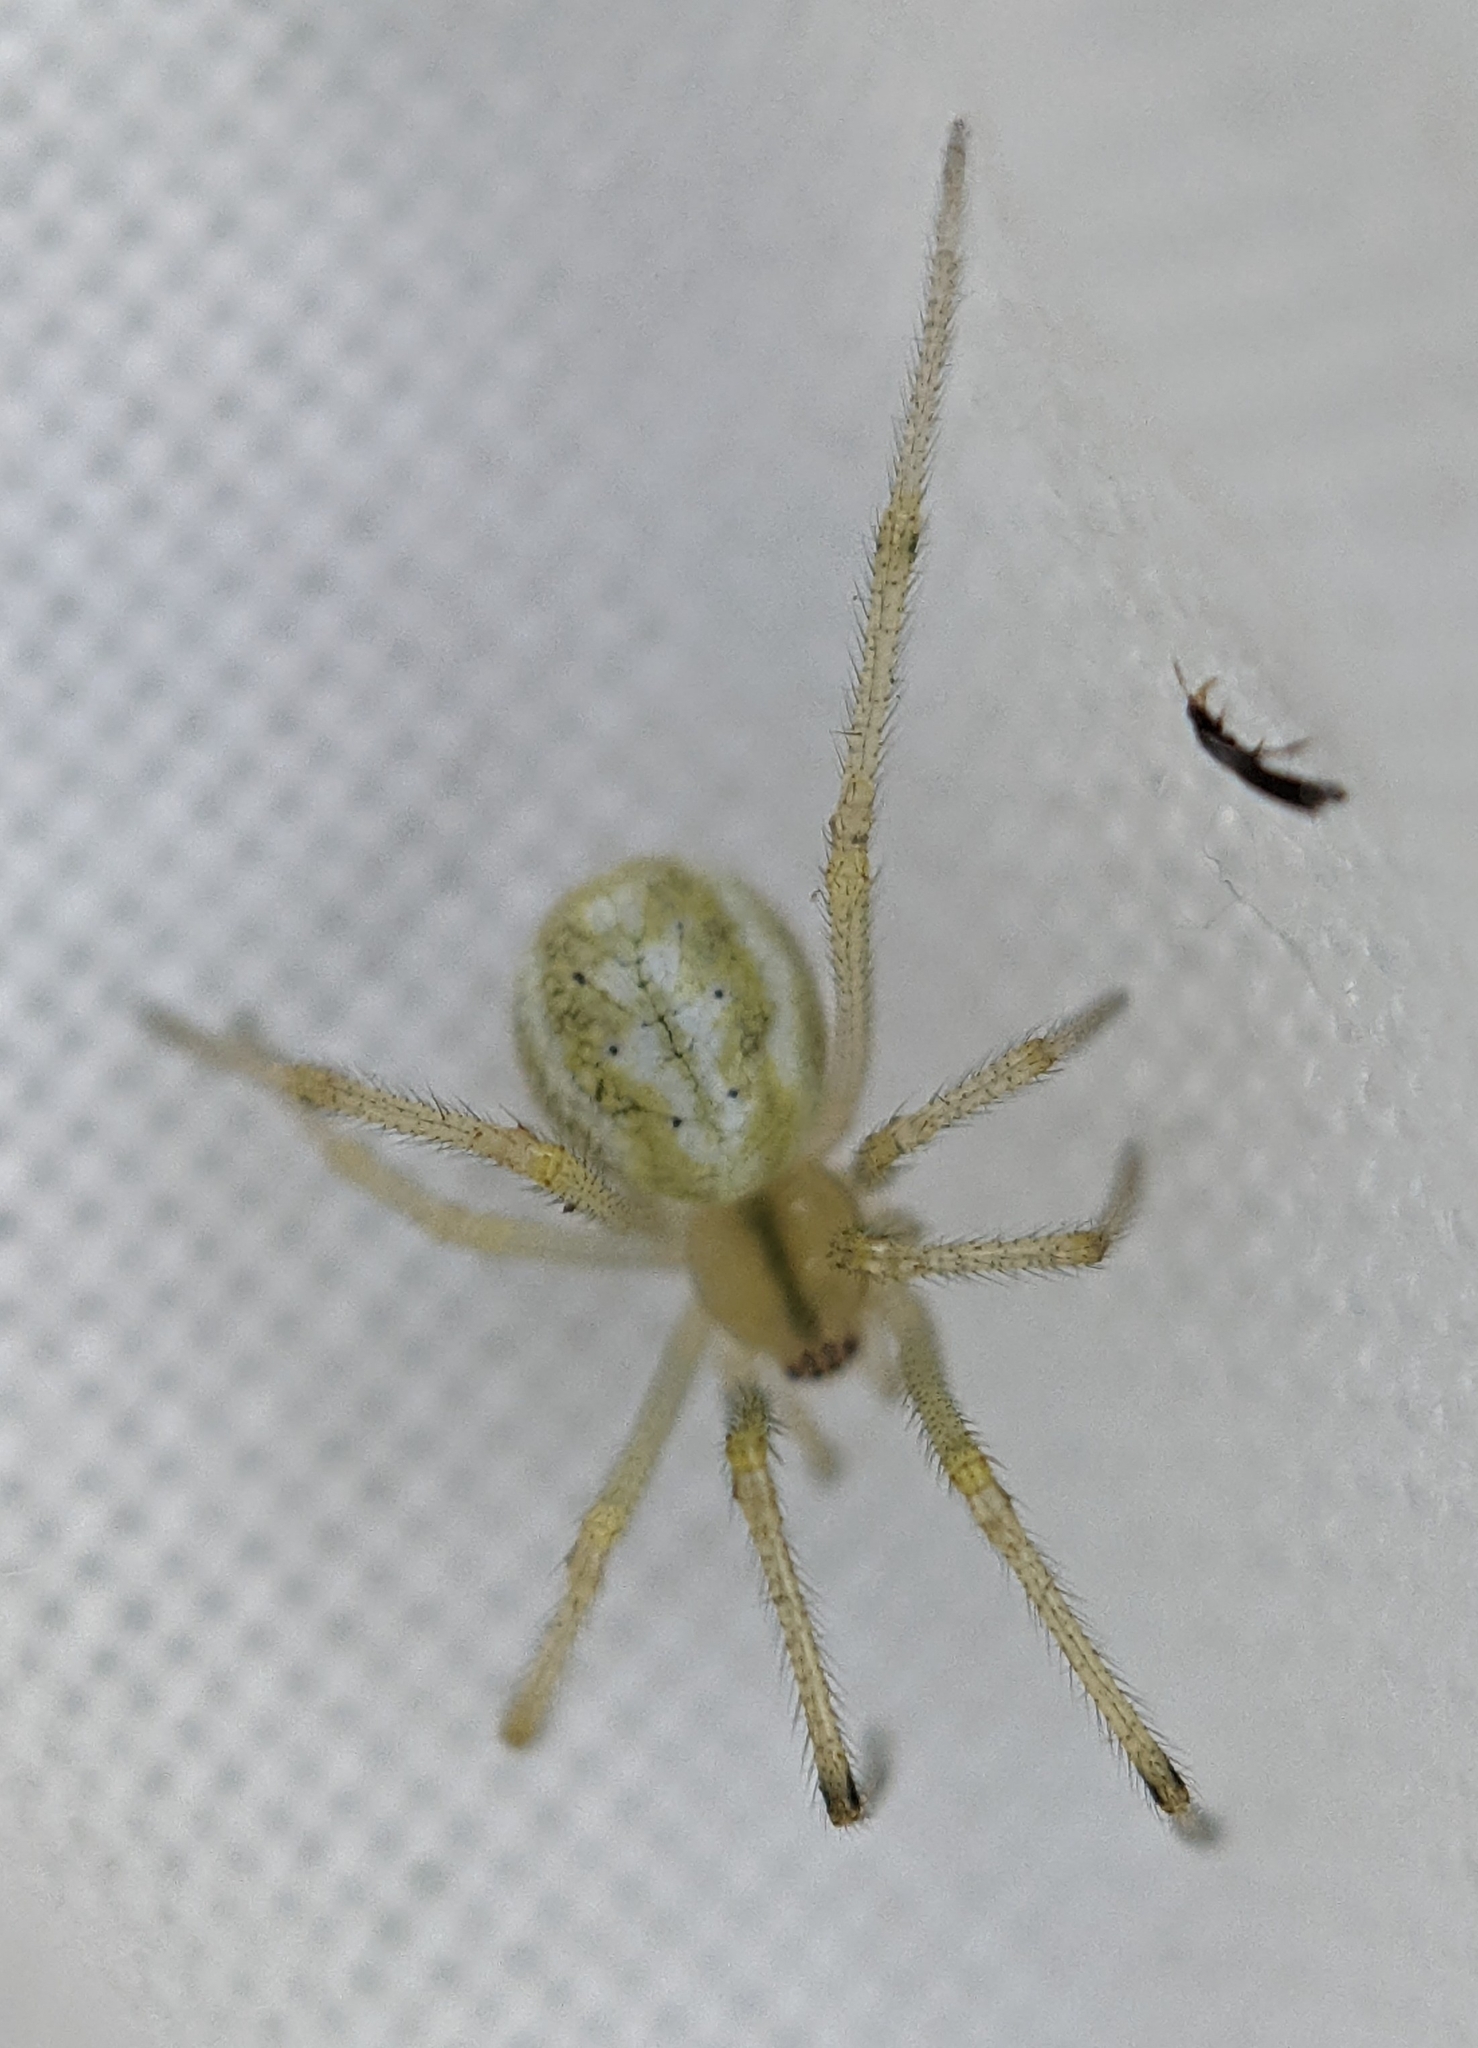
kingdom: Animalia
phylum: Arthropoda
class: Arachnida
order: Araneae
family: Theridiidae
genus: Enoplognatha
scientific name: Enoplognatha ovata
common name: Common candy-striped spider
